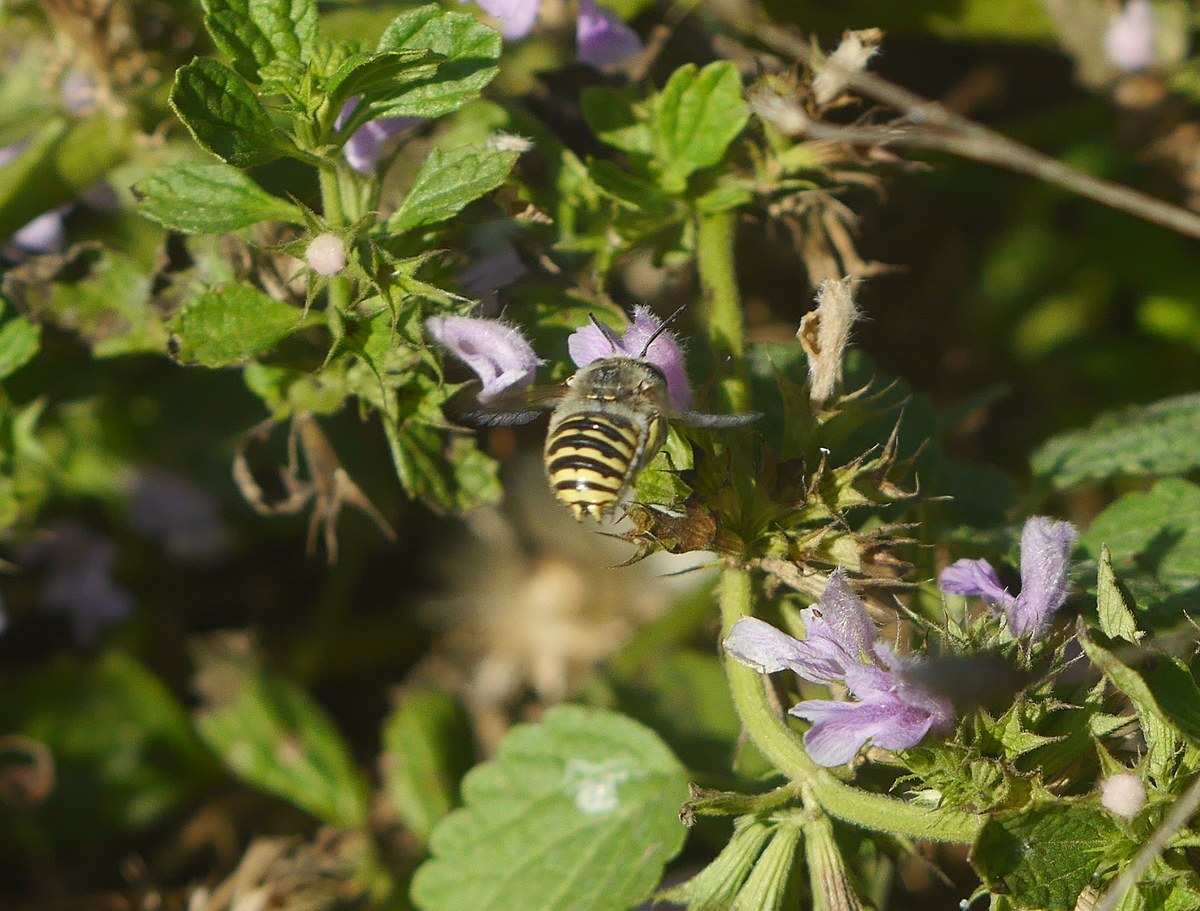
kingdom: Animalia
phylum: Arthropoda
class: Insecta
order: Hymenoptera
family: Megachilidae
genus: Anthidium
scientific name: Anthidium cingulatum
